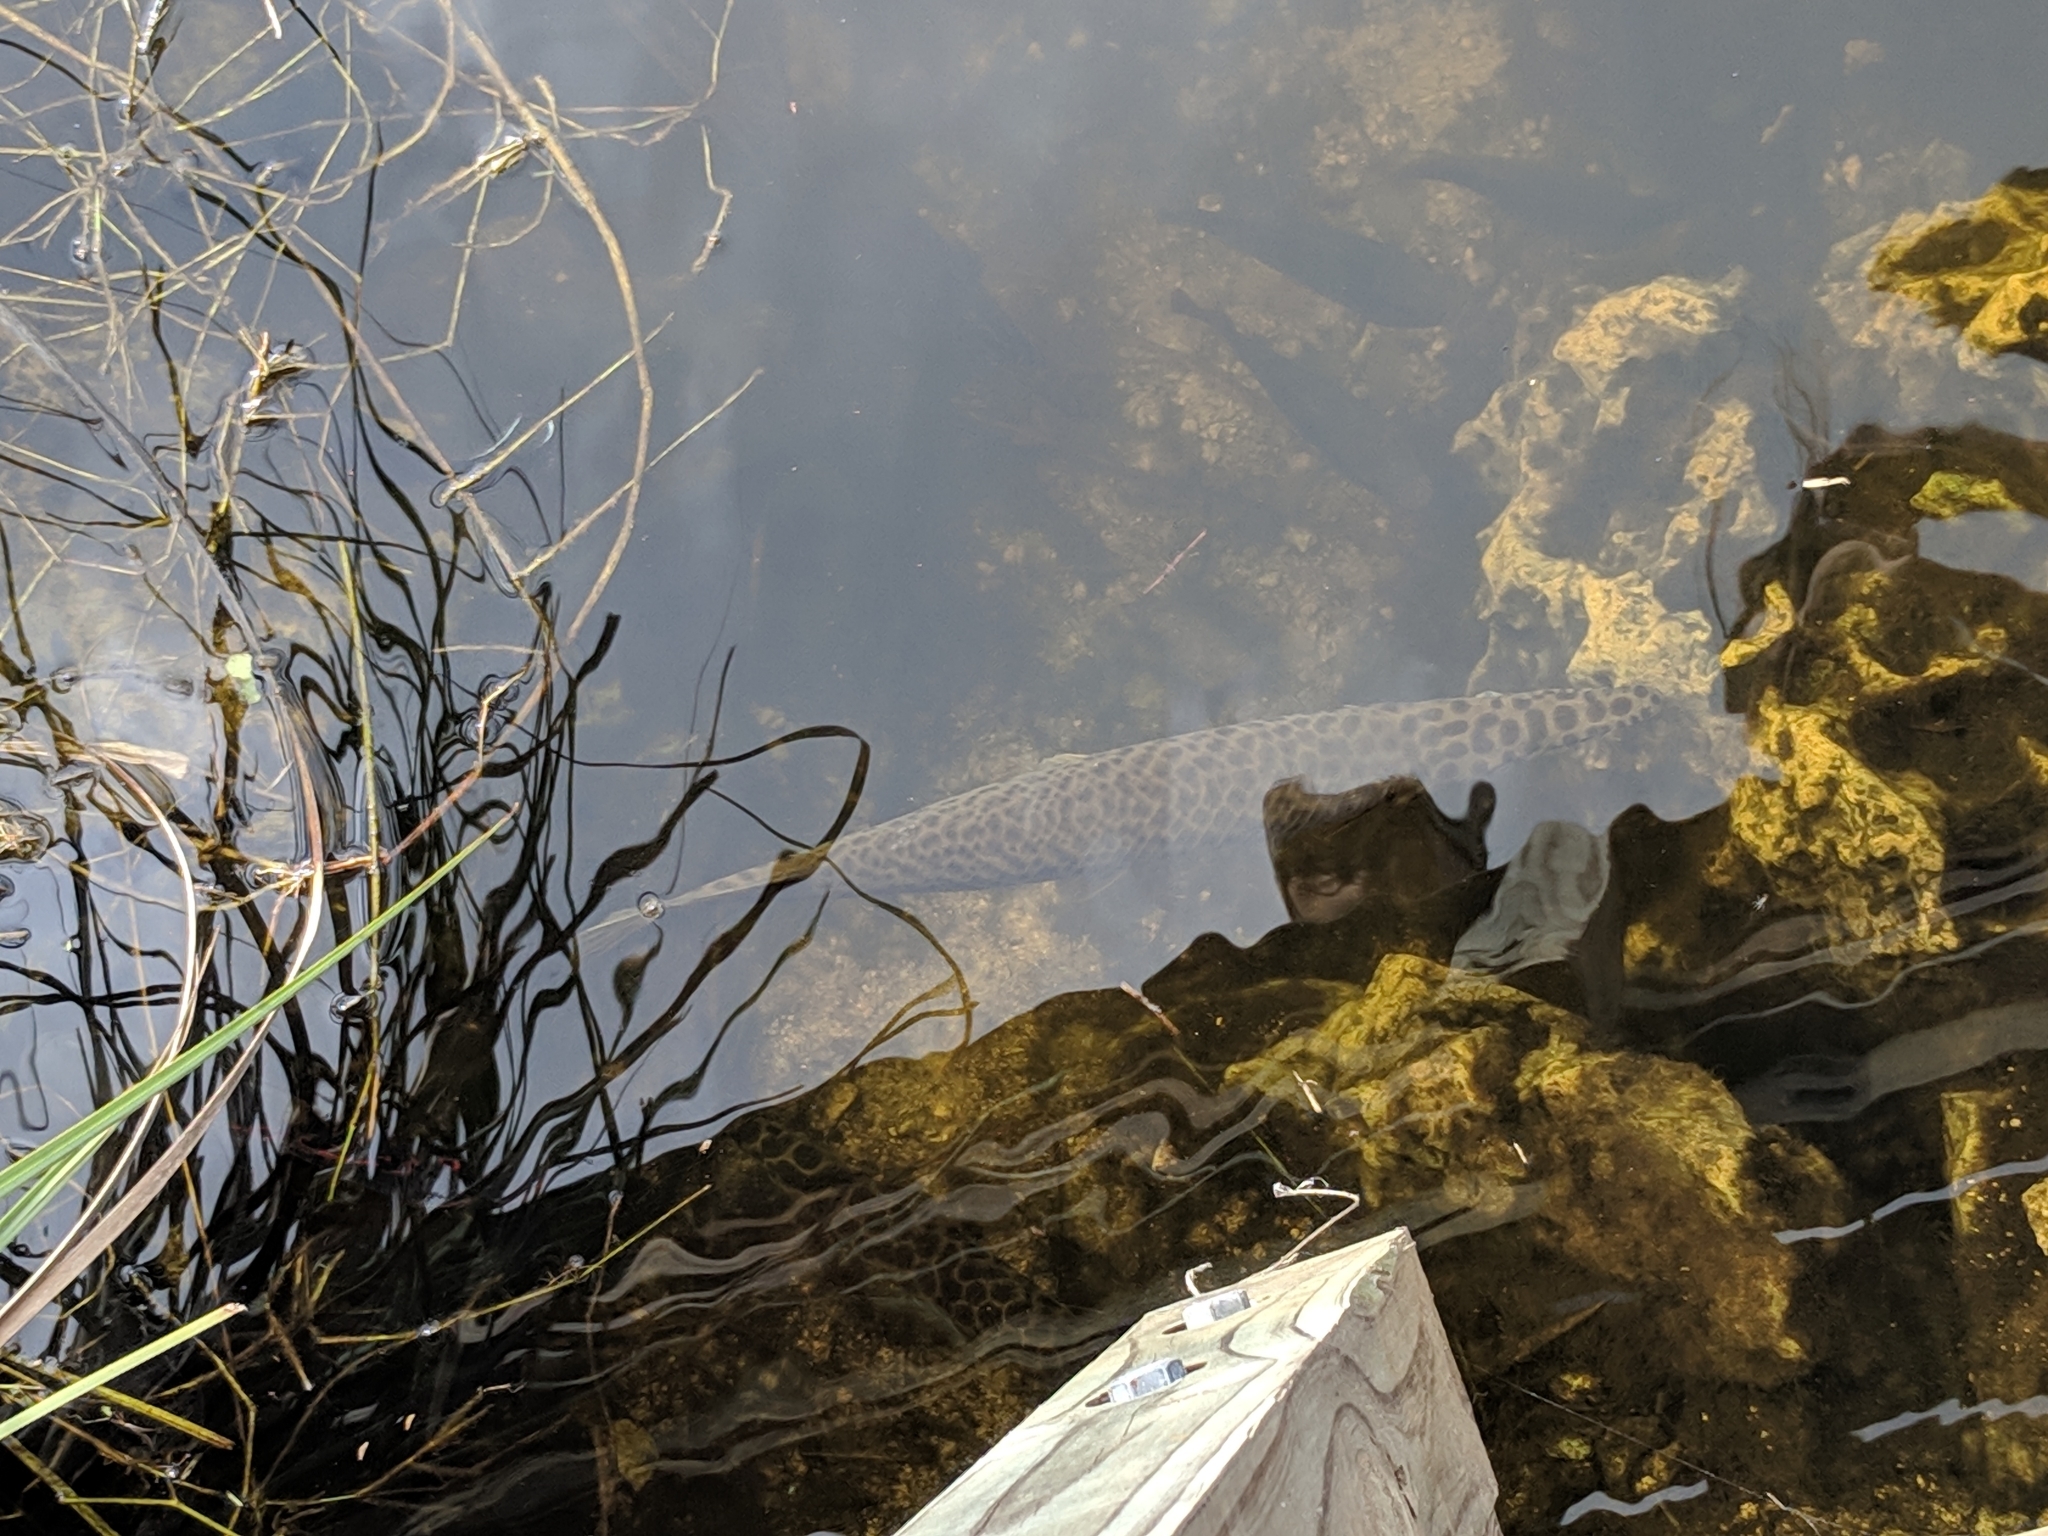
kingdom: Animalia
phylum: Chordata
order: Lepisosteiformes
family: Lepisosteidae
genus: Lepisosteus
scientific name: Lepisosteus platyrhincus
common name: Florida gar
